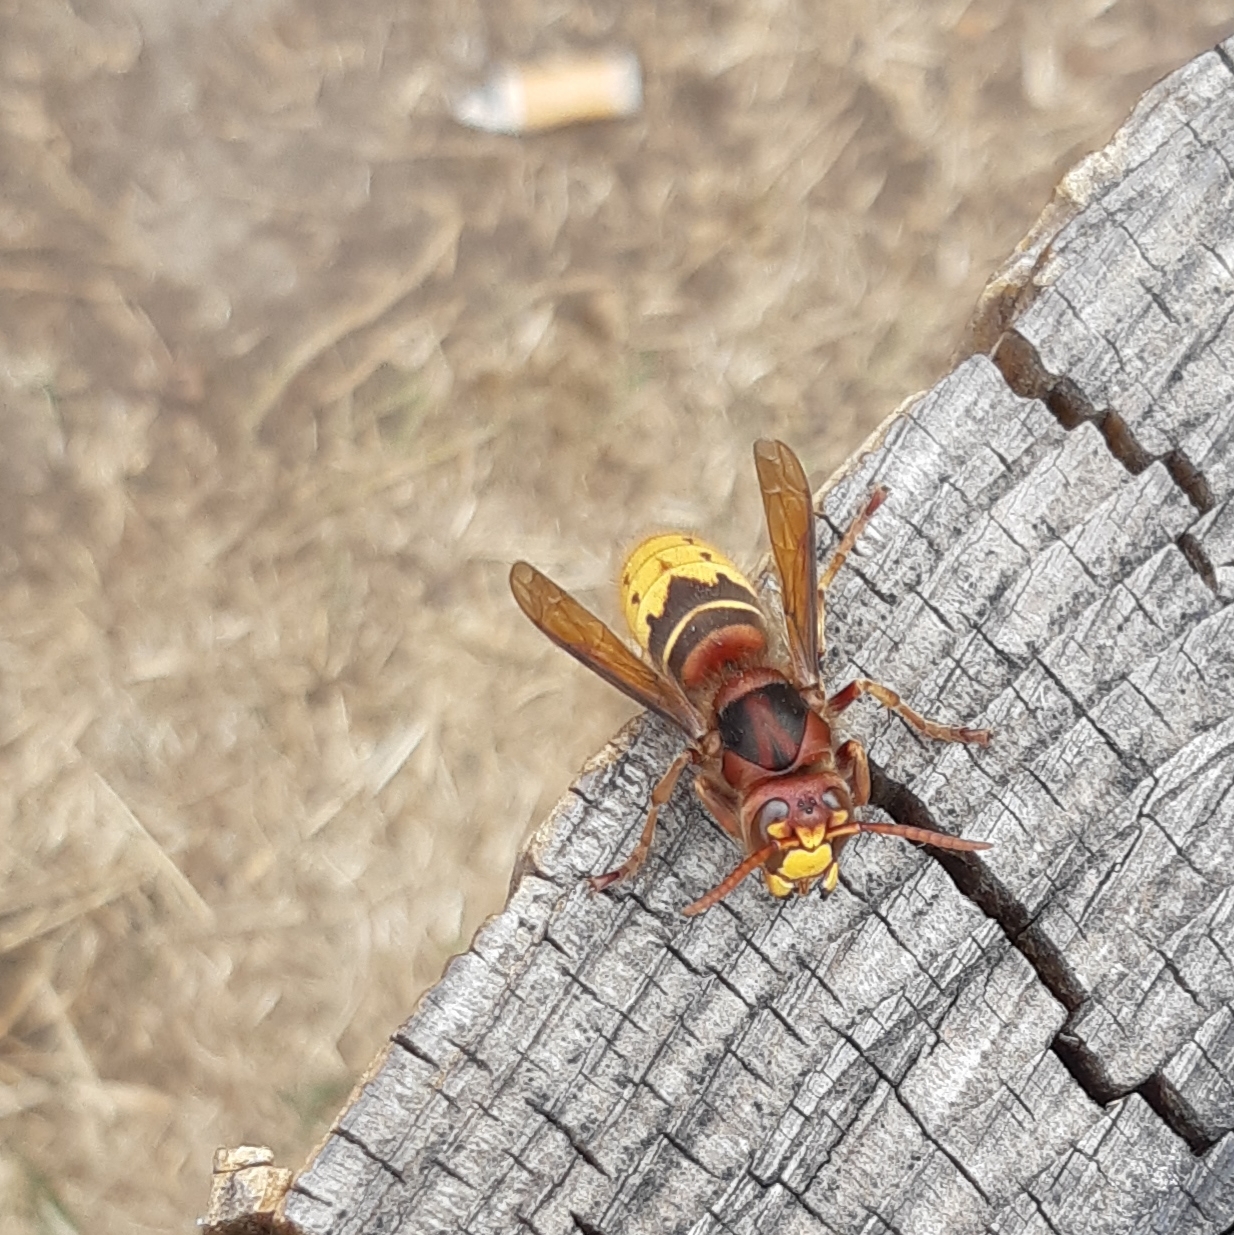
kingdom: Animalia
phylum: Arthropoda
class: Insecta
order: Hymenoptera
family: Vespidae
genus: Vespa
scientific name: Vespa crabro
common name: Hornet
